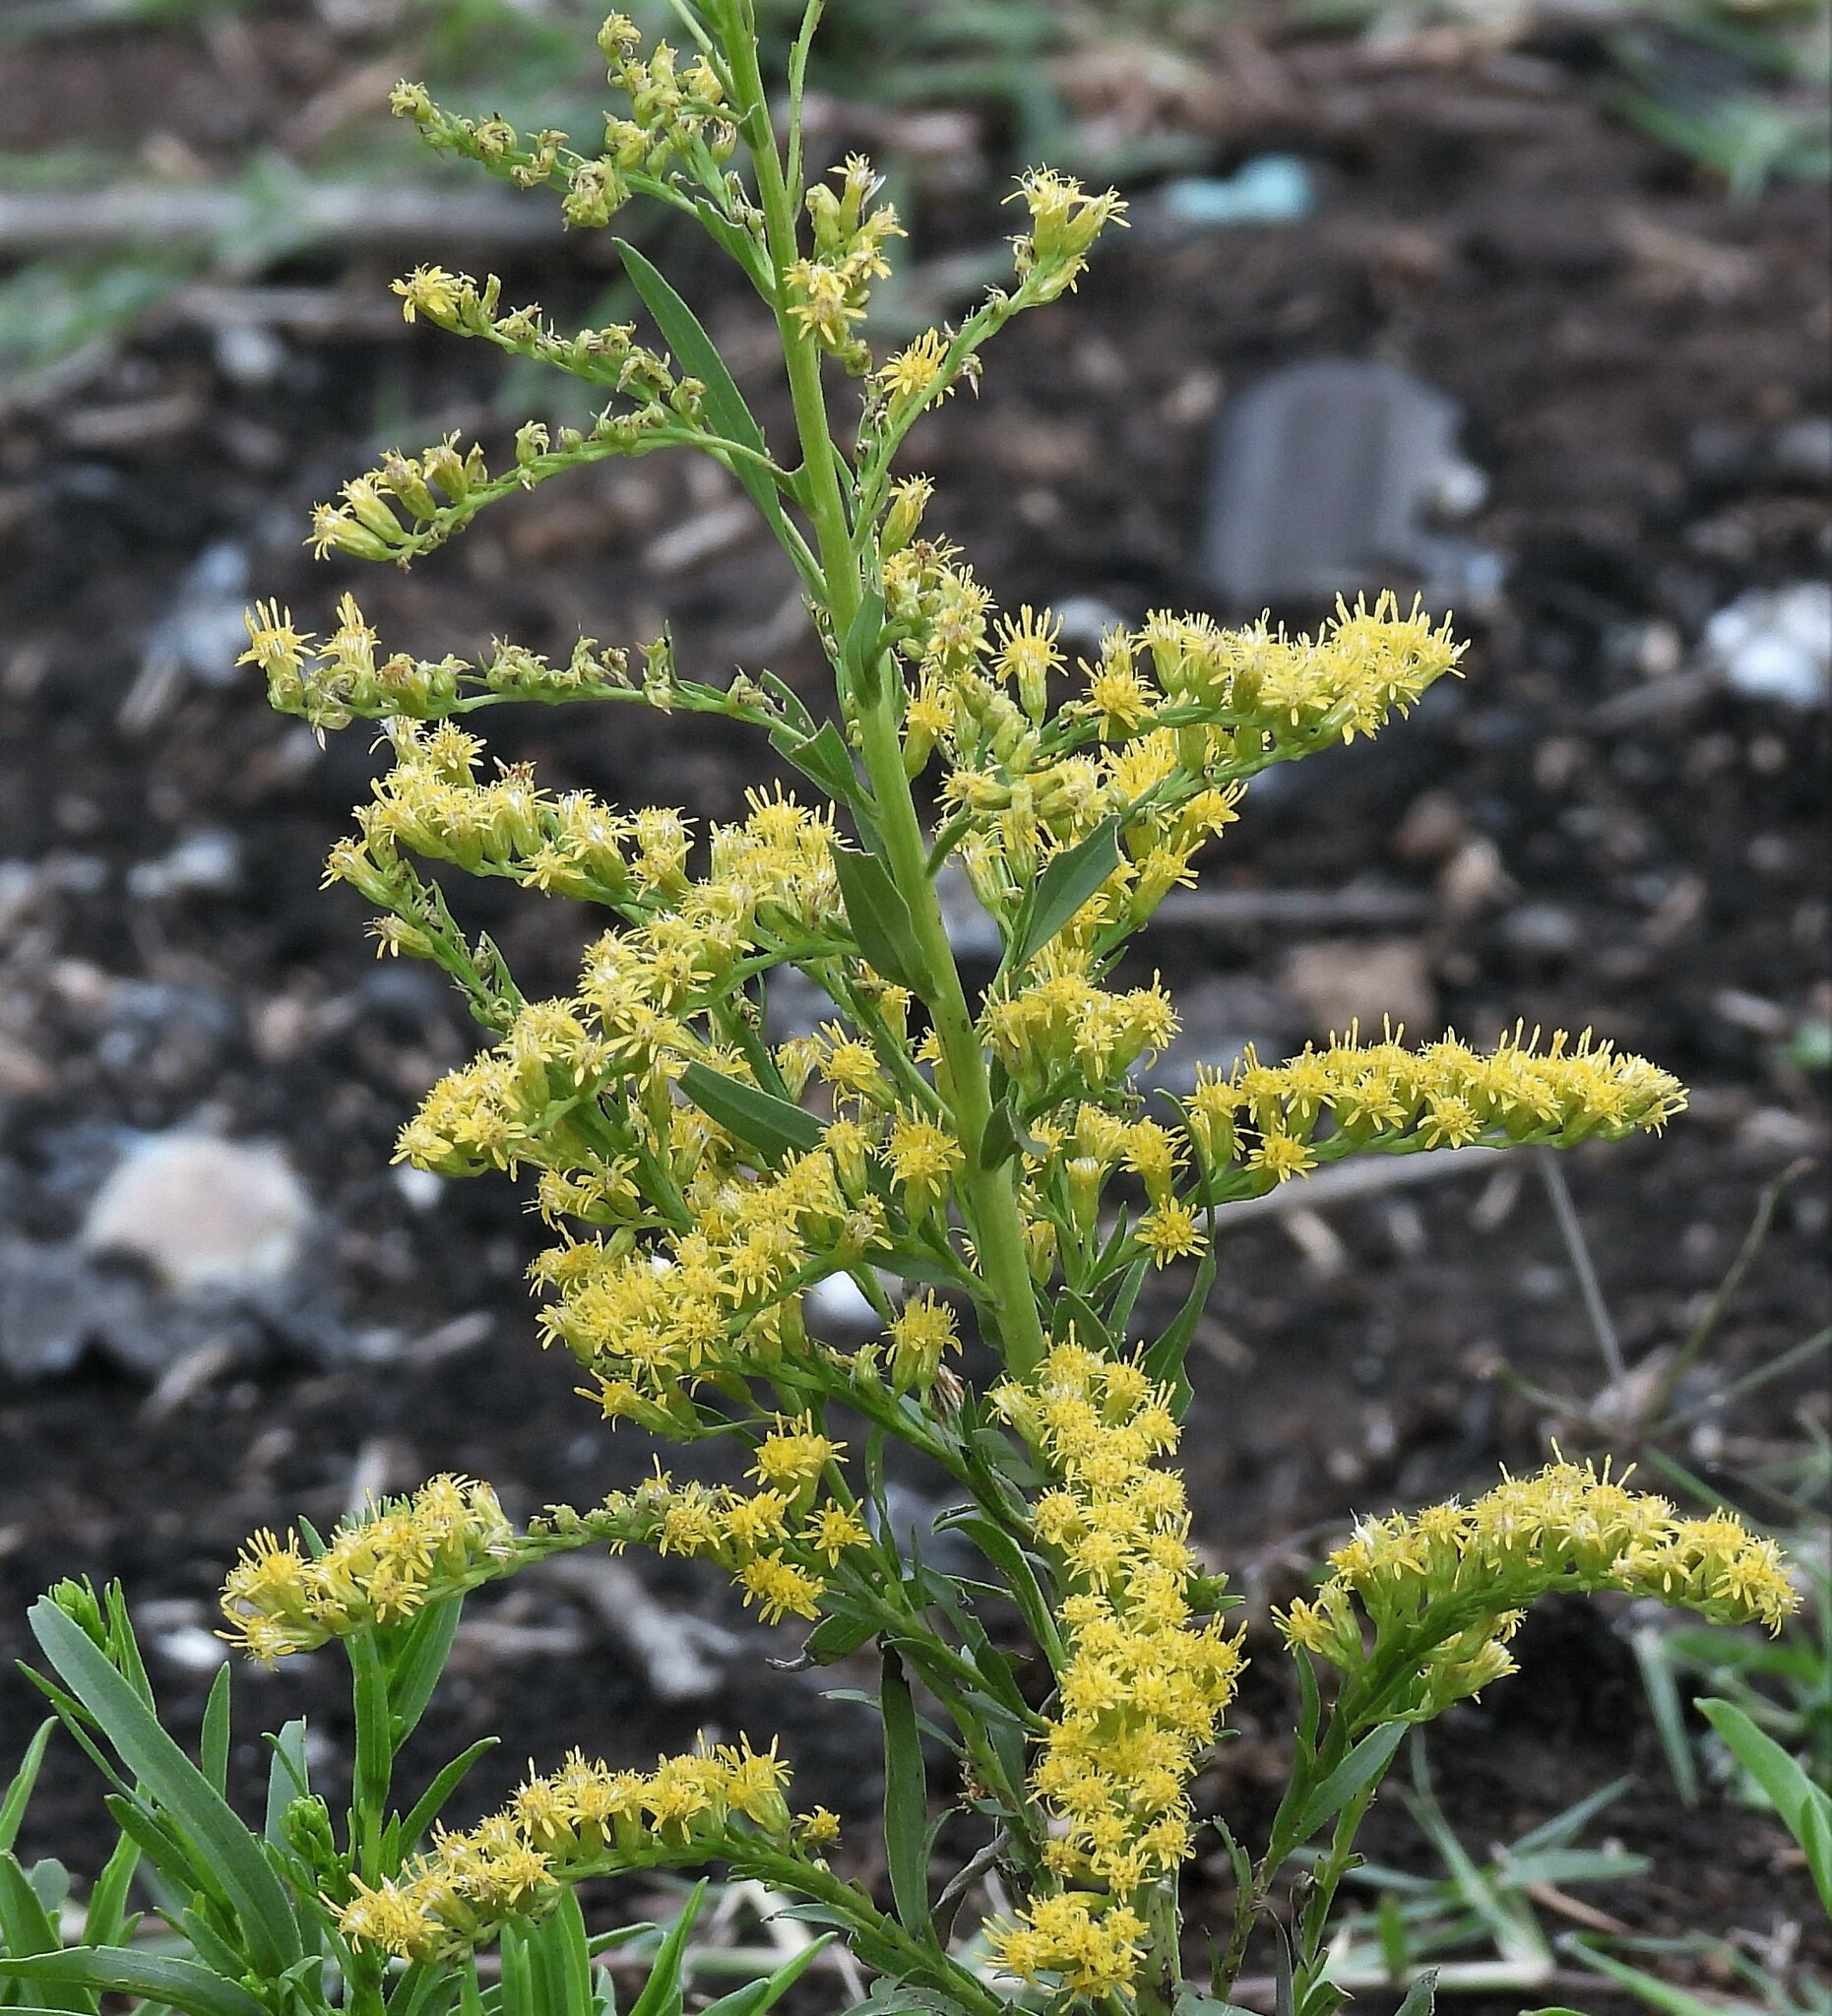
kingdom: Plantae
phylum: Tracheophyta
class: Magnoliopsida
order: Asterales
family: Asteraceae
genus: Solidago
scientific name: Solidago chilensis
